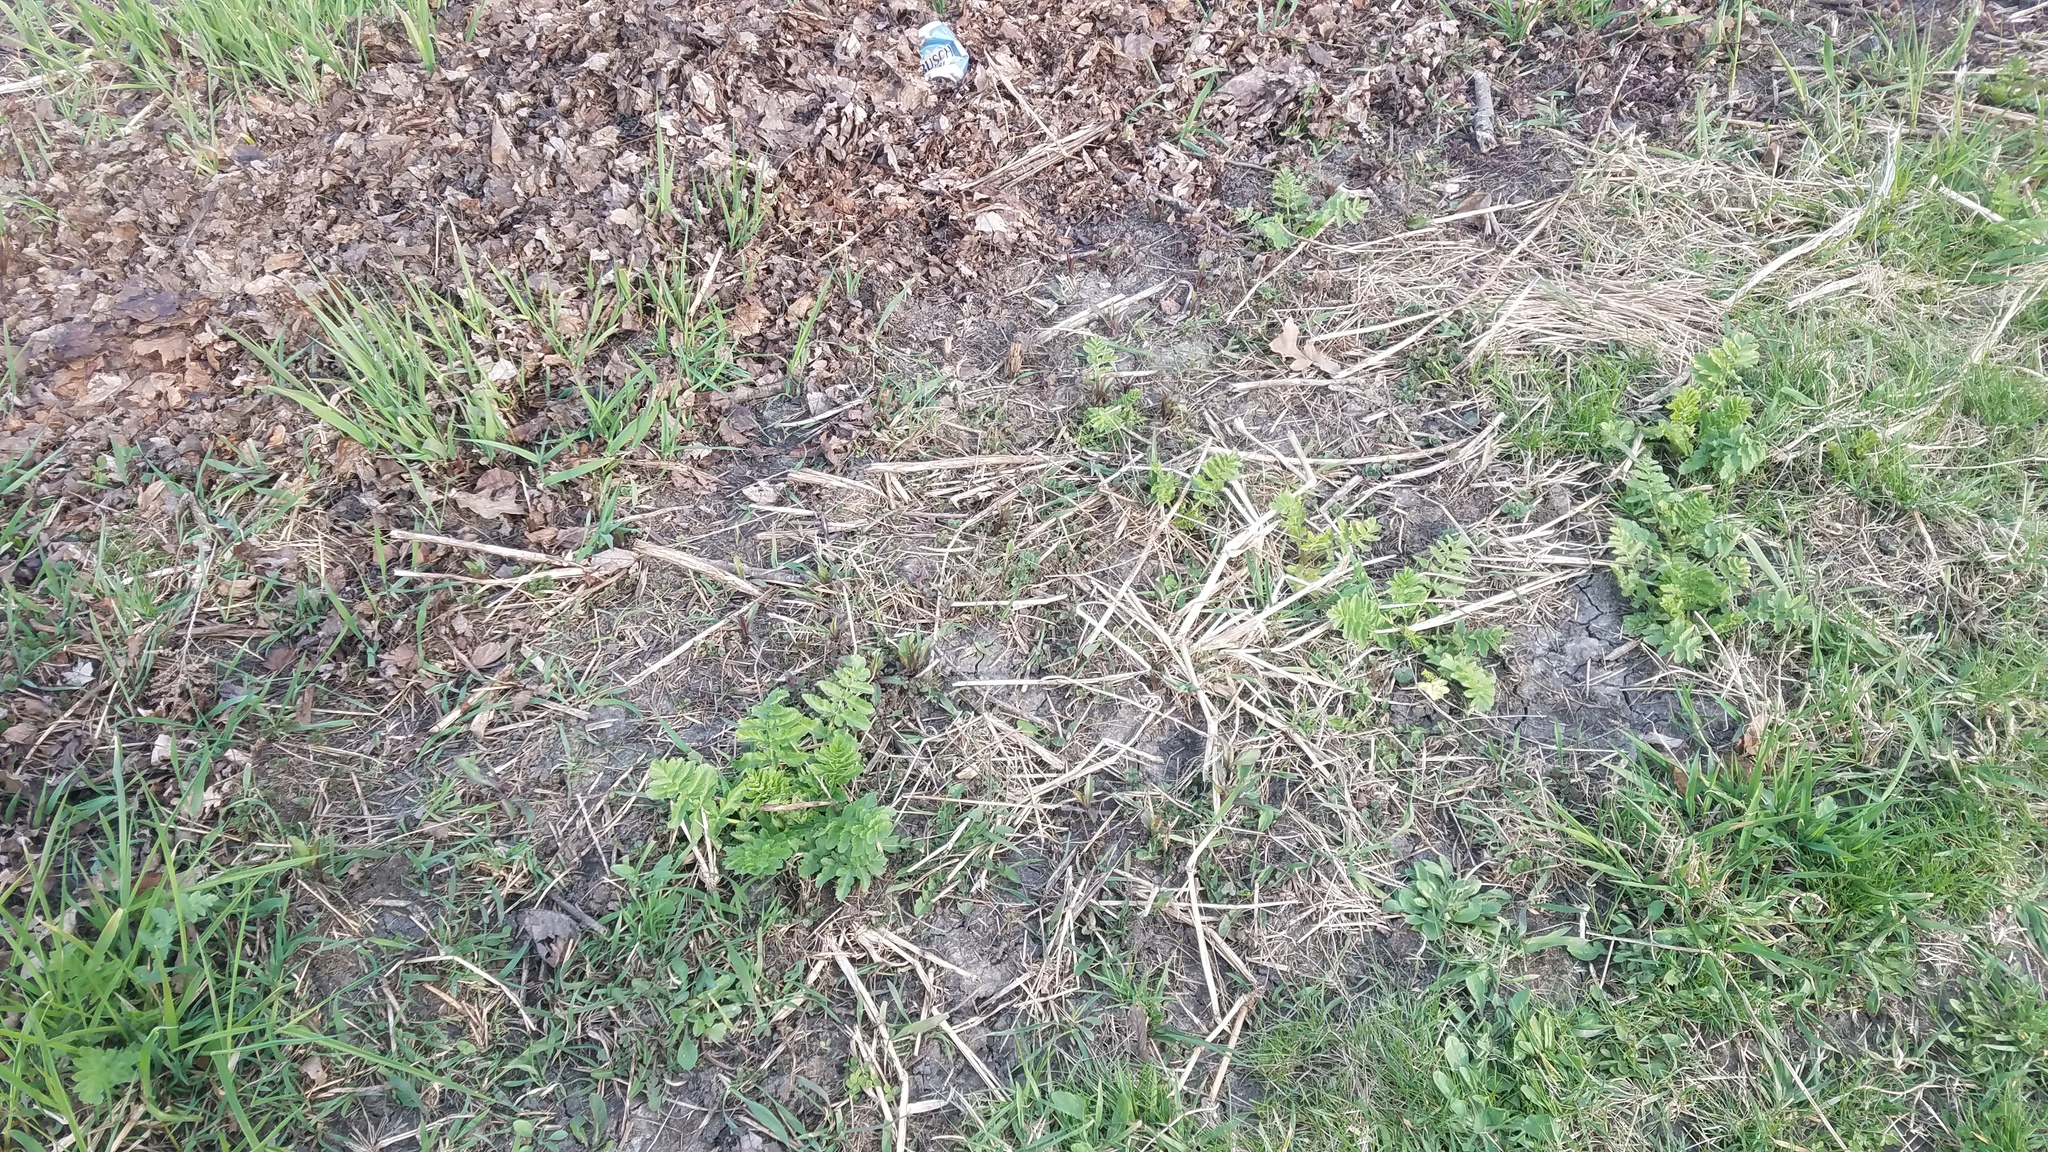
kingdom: Plantae
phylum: Tracheophyta
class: Magnoliopsida
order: Apiales
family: Apiaceae
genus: Pastinaca
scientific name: Pastinaca sativa
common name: Wild parsnip
